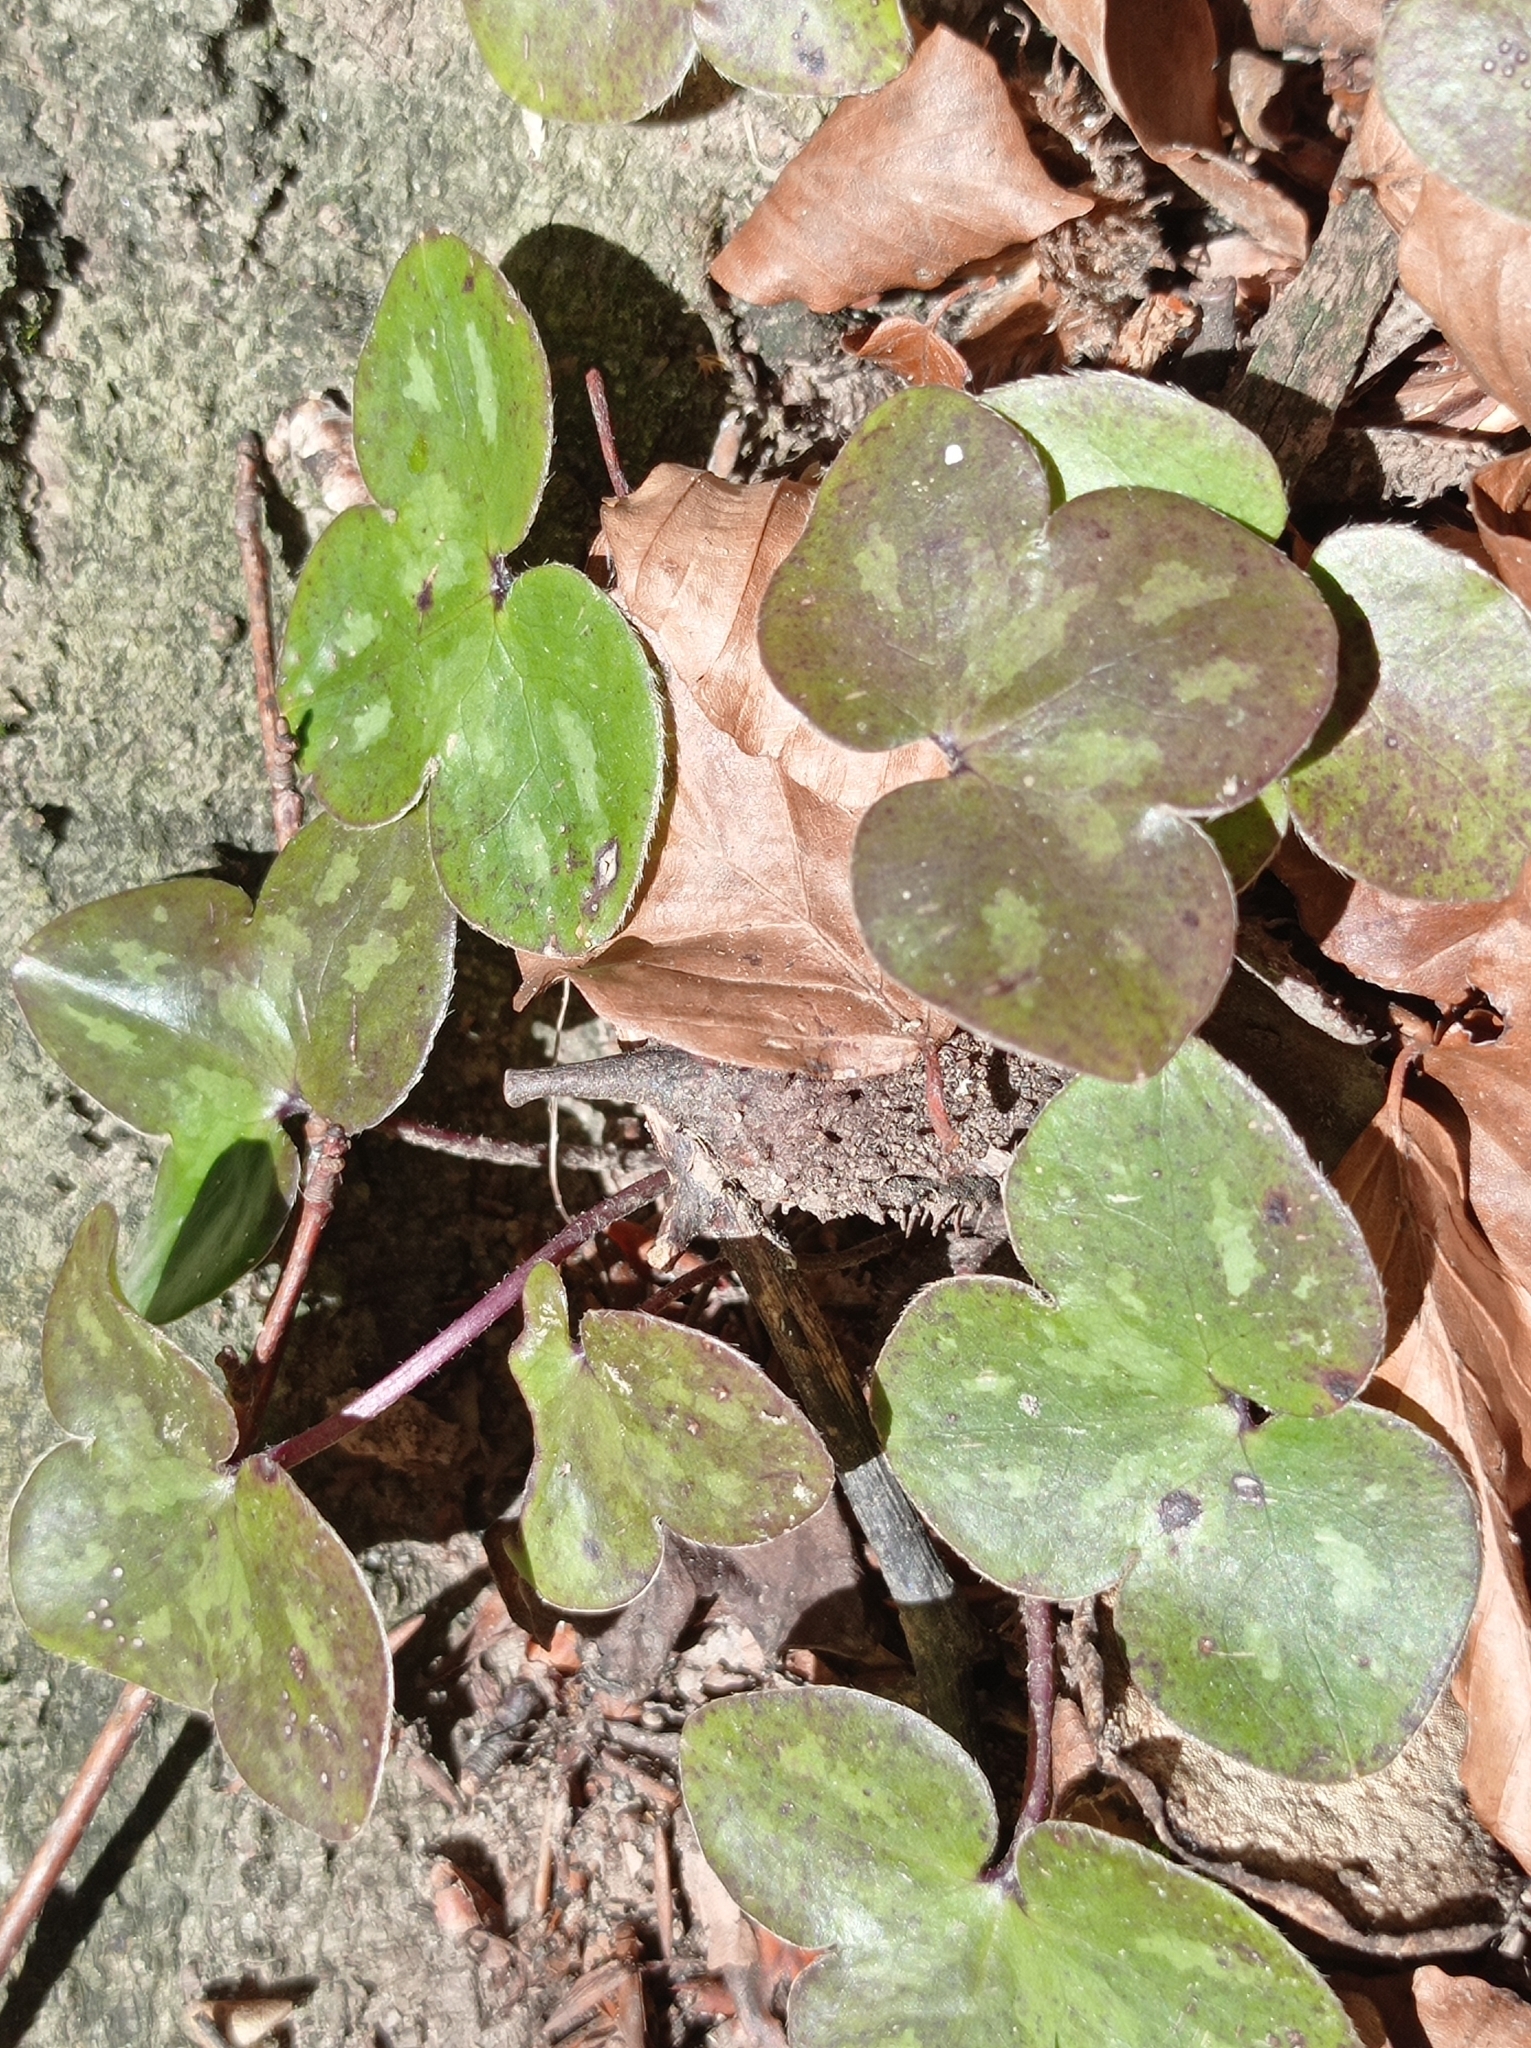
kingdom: Plantae
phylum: Tracheophyta
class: Magnoliopsida
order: Ranunculales
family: Ranunculaceae
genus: Hepatica
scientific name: Hepatica nobilis
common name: Liverleaf
